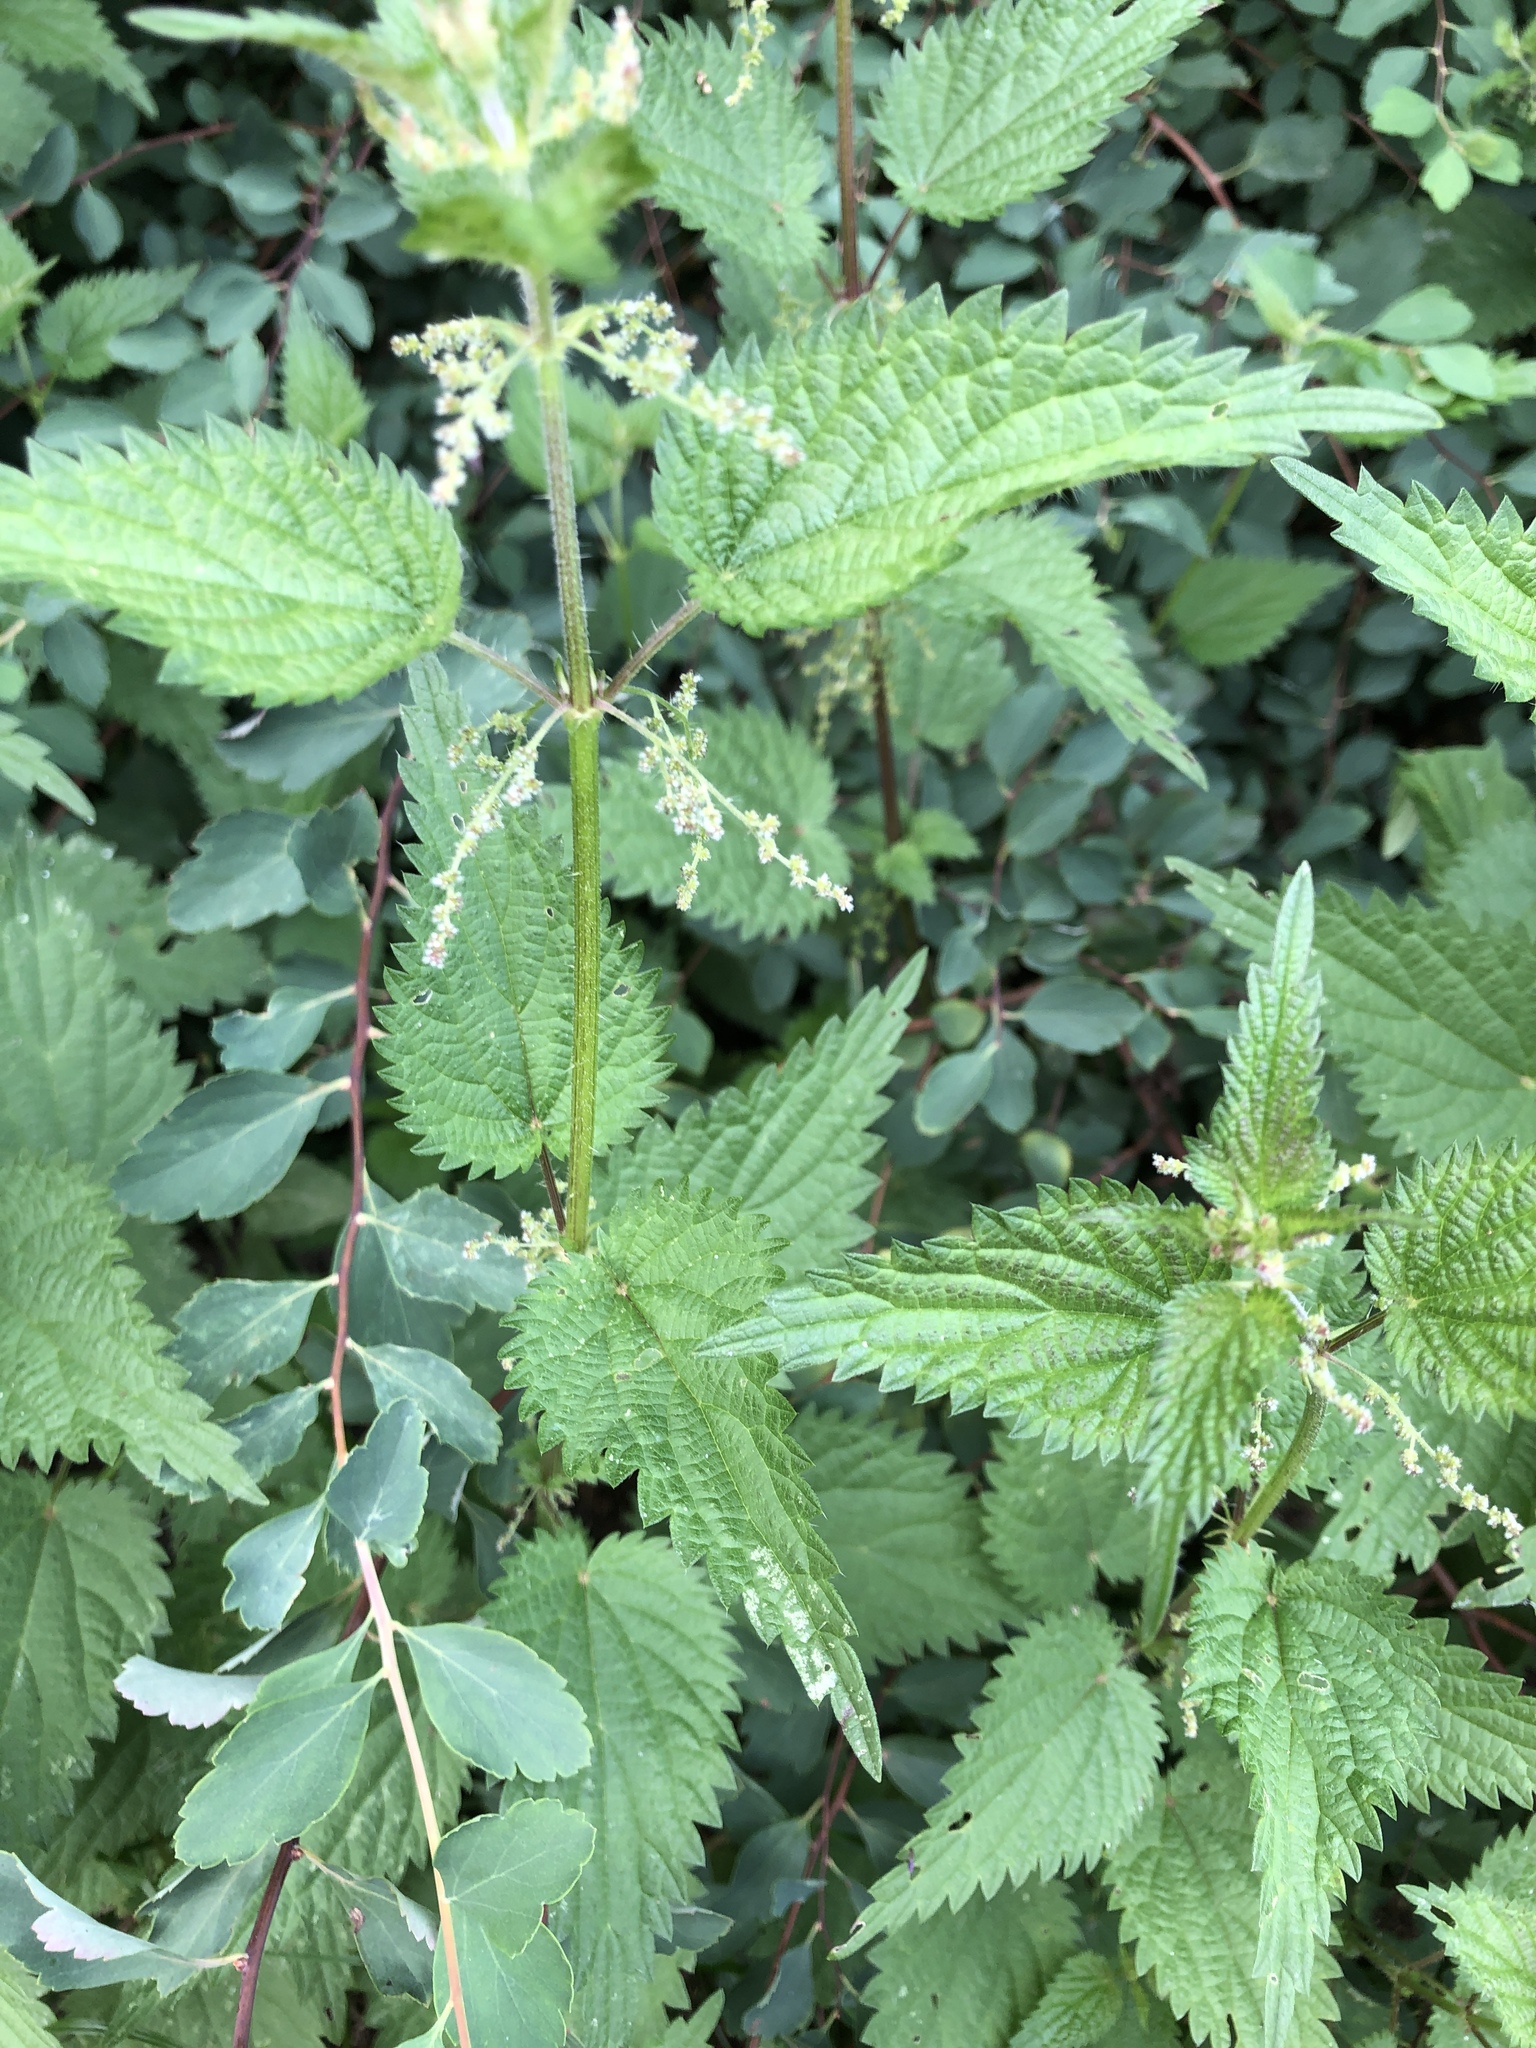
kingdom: Plantae
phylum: Tracheophyta
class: Magnoliopsida
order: Rosales
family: Urticaceae
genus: Urtica
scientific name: Urtica dioica
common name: Common nettle
